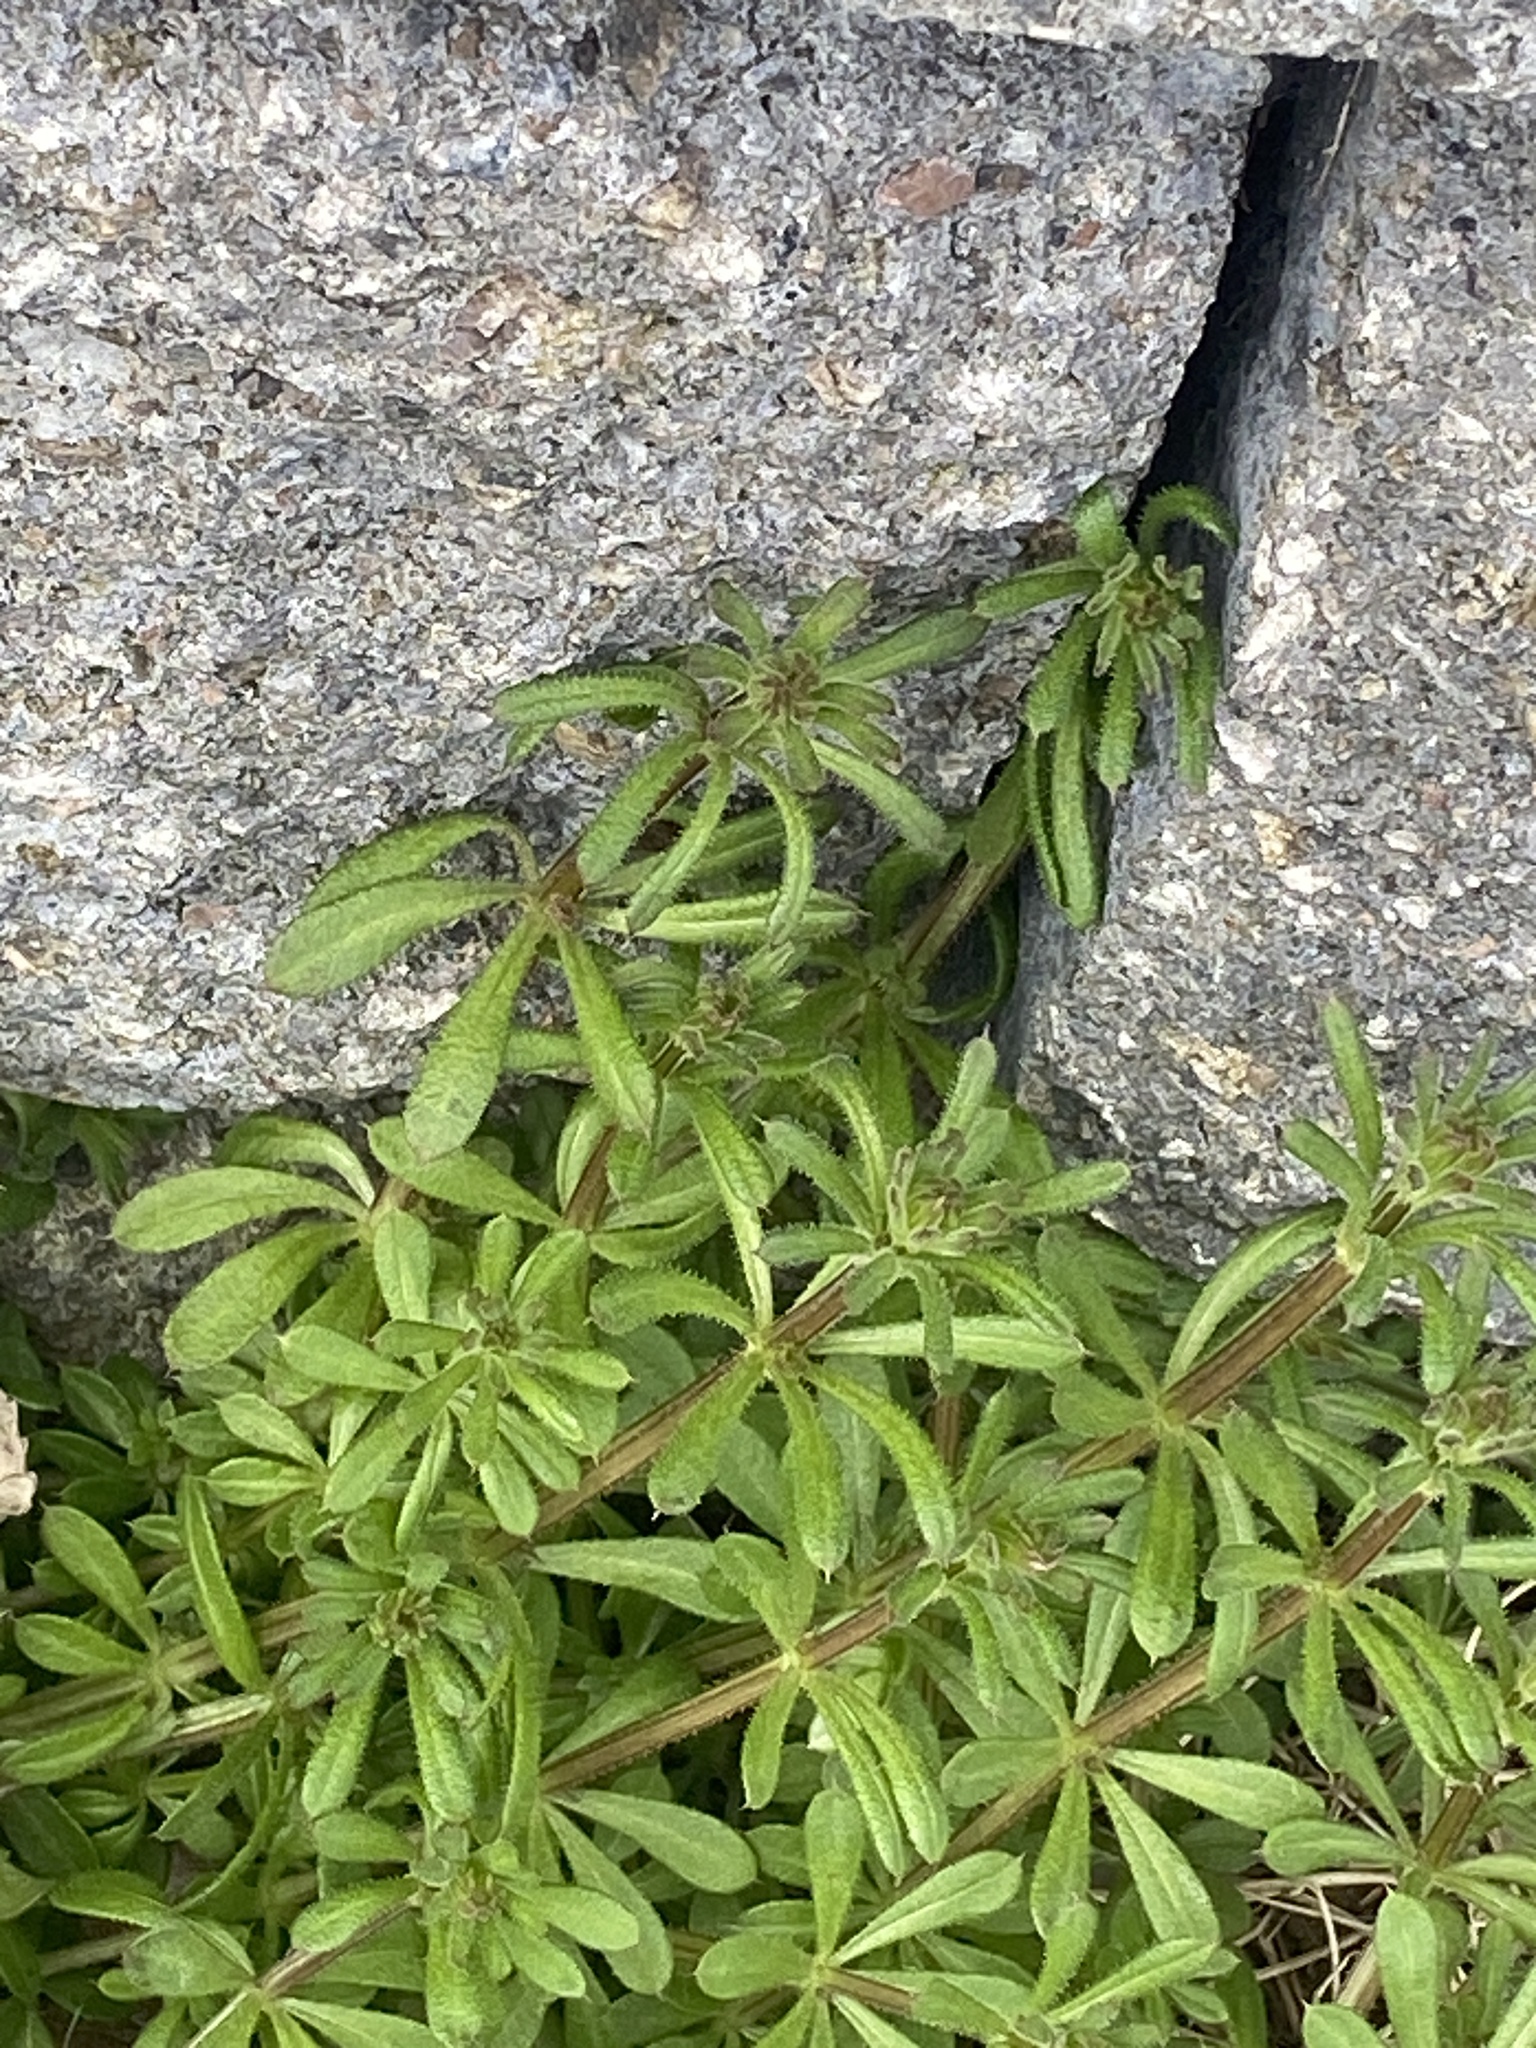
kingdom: Plantae
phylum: Tracheophyta
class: Magnoliopsida
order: Gentianales
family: Rubiaceae
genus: Galium
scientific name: Galium aparine
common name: Cleavers
